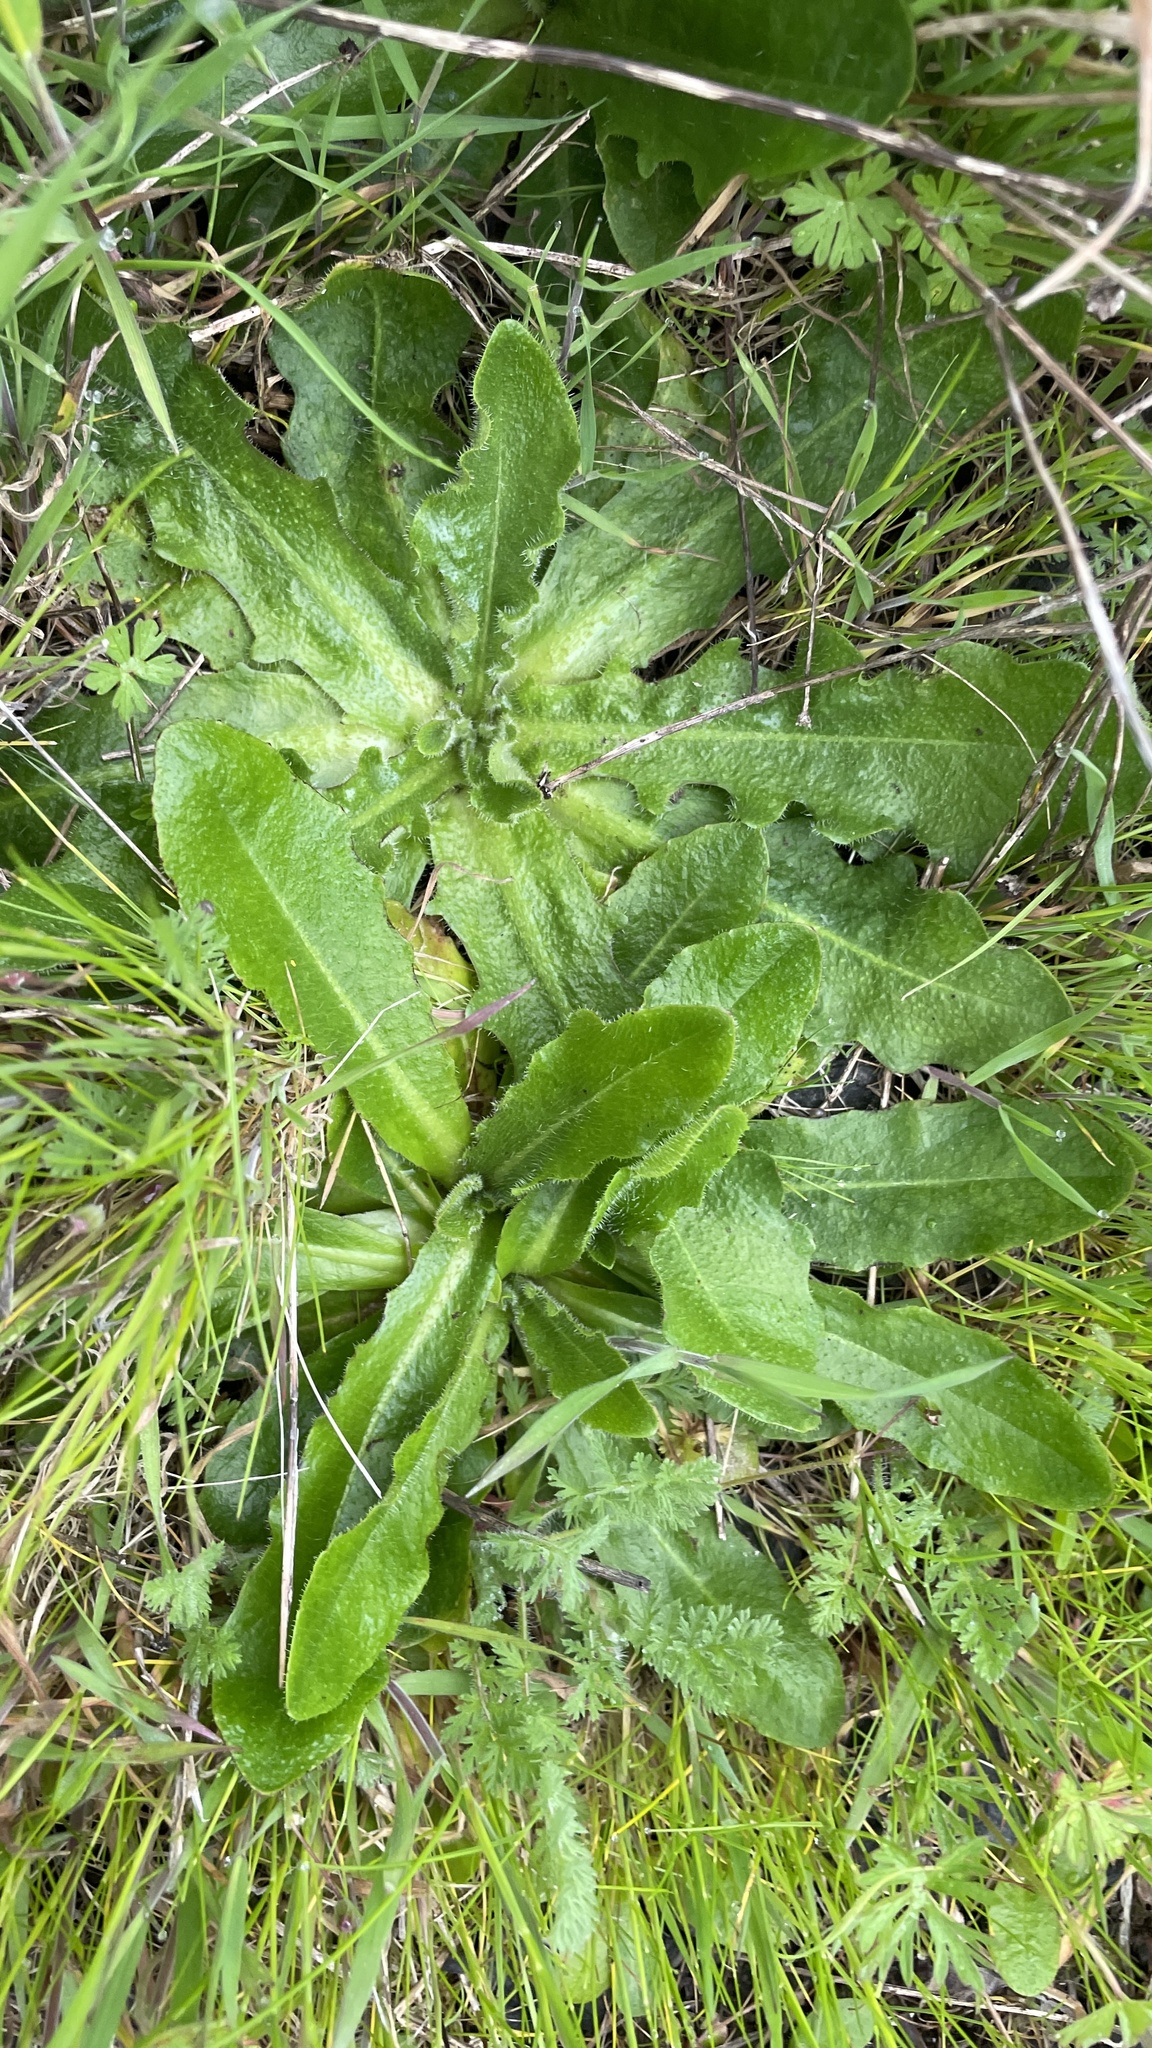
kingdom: Plantae
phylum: Tracheophyta
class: Magnoliopsida
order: Asterales
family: Asteraceae
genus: Hypochaeris
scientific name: Hypochaeris radicata
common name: Flatweed
